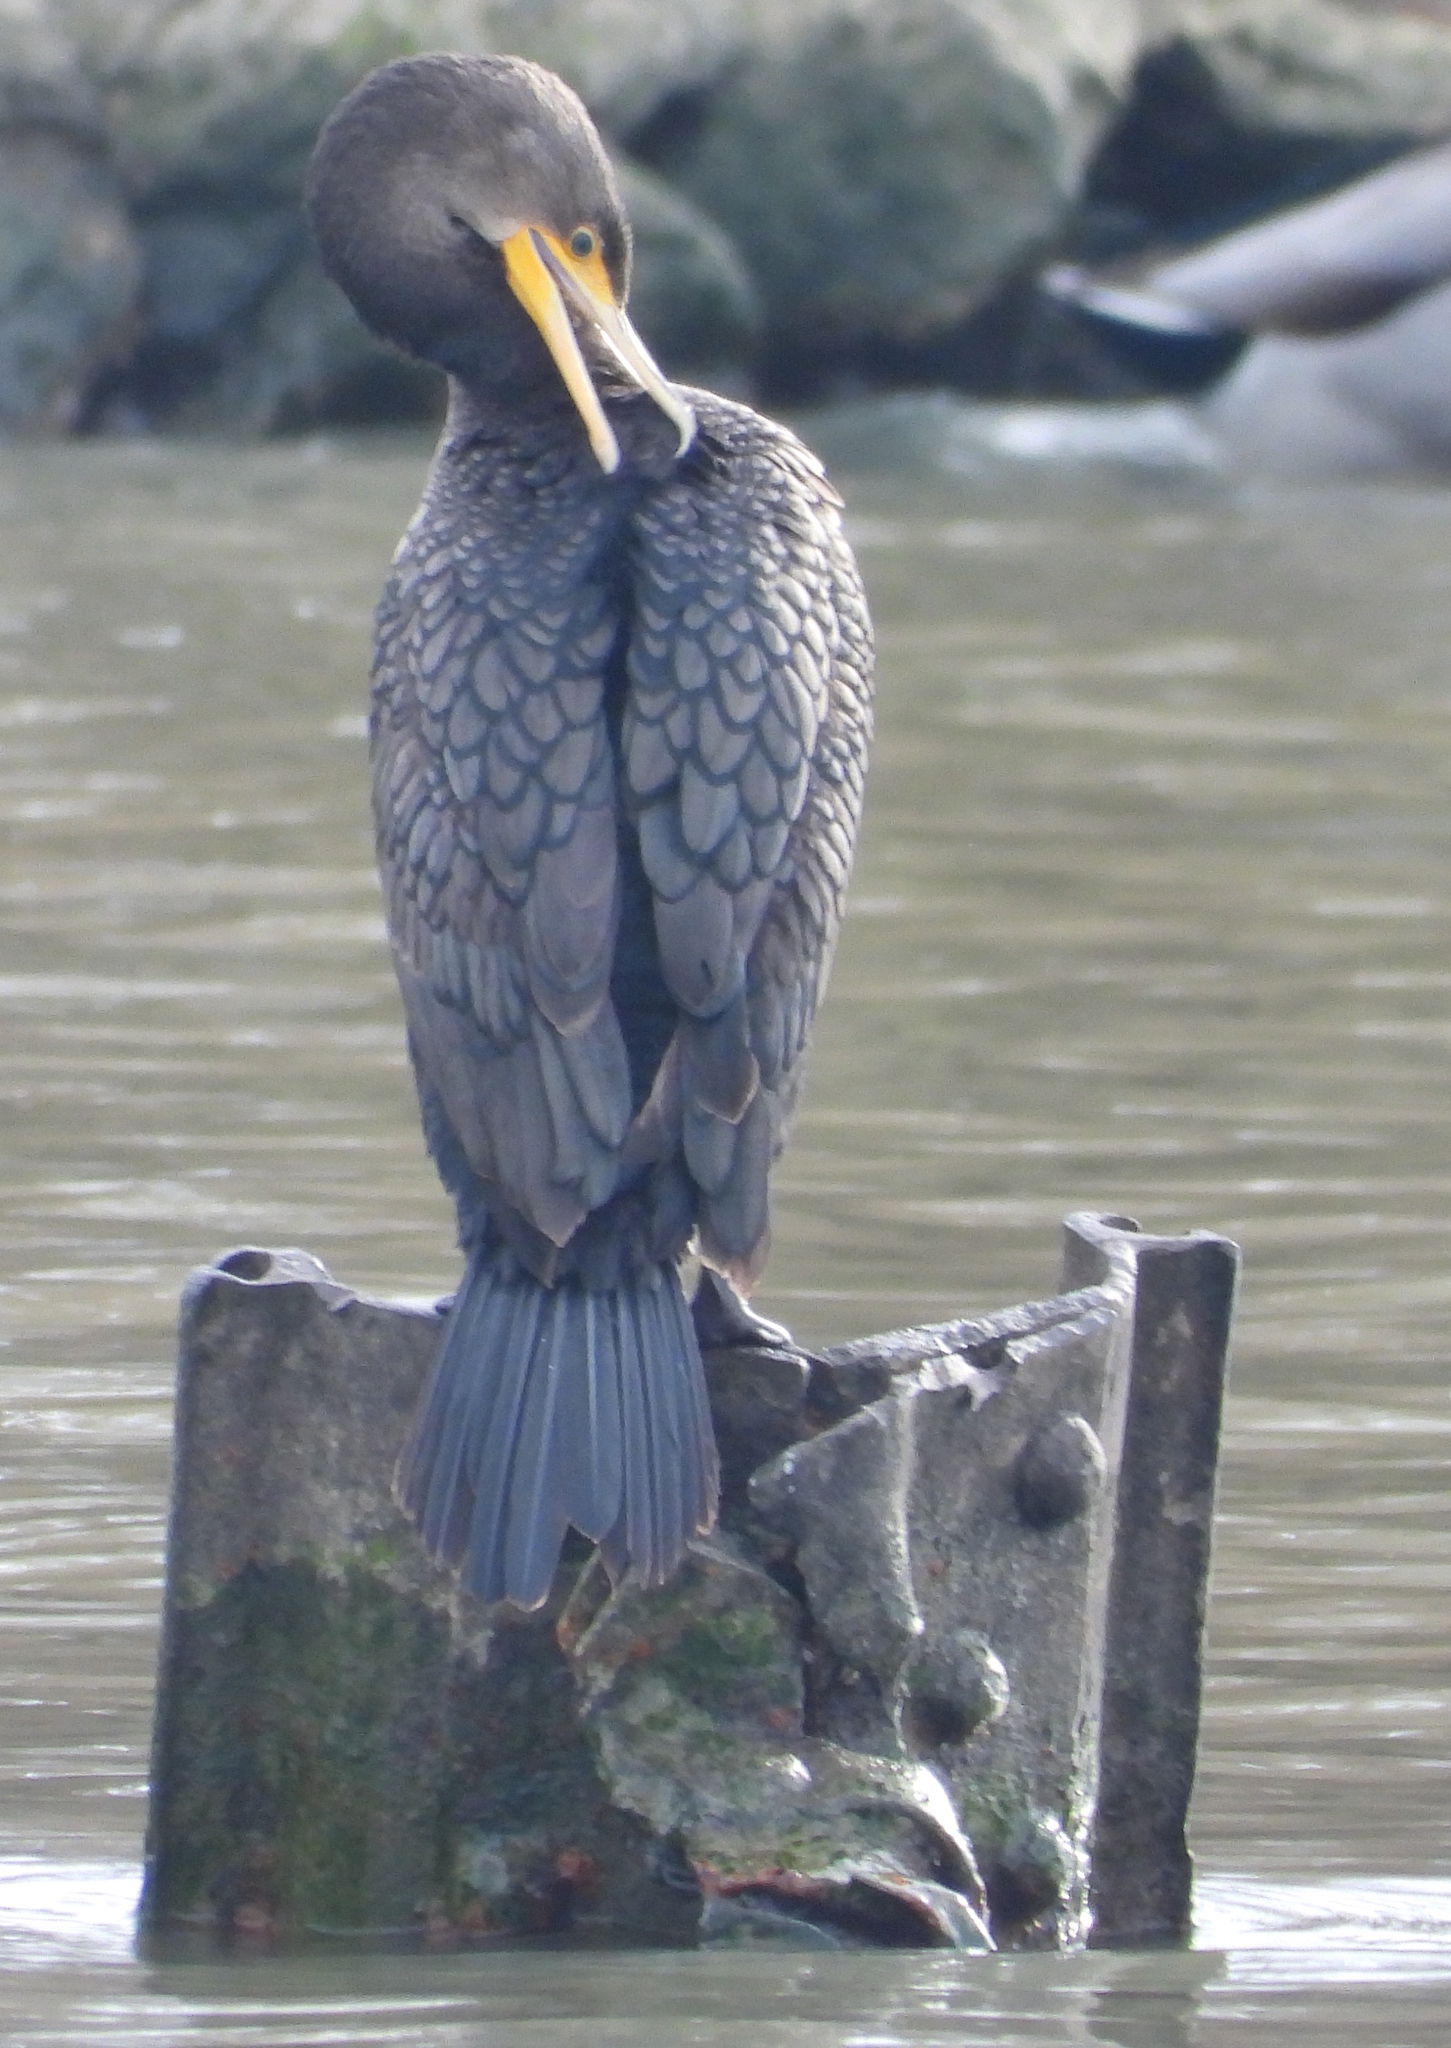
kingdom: Animalia
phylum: Chordata
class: Aves
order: Suliformes
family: Phalacrocoracidae
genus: Phalacrocorax
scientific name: Phalacrocorax auritus
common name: Double-crested cormorant
